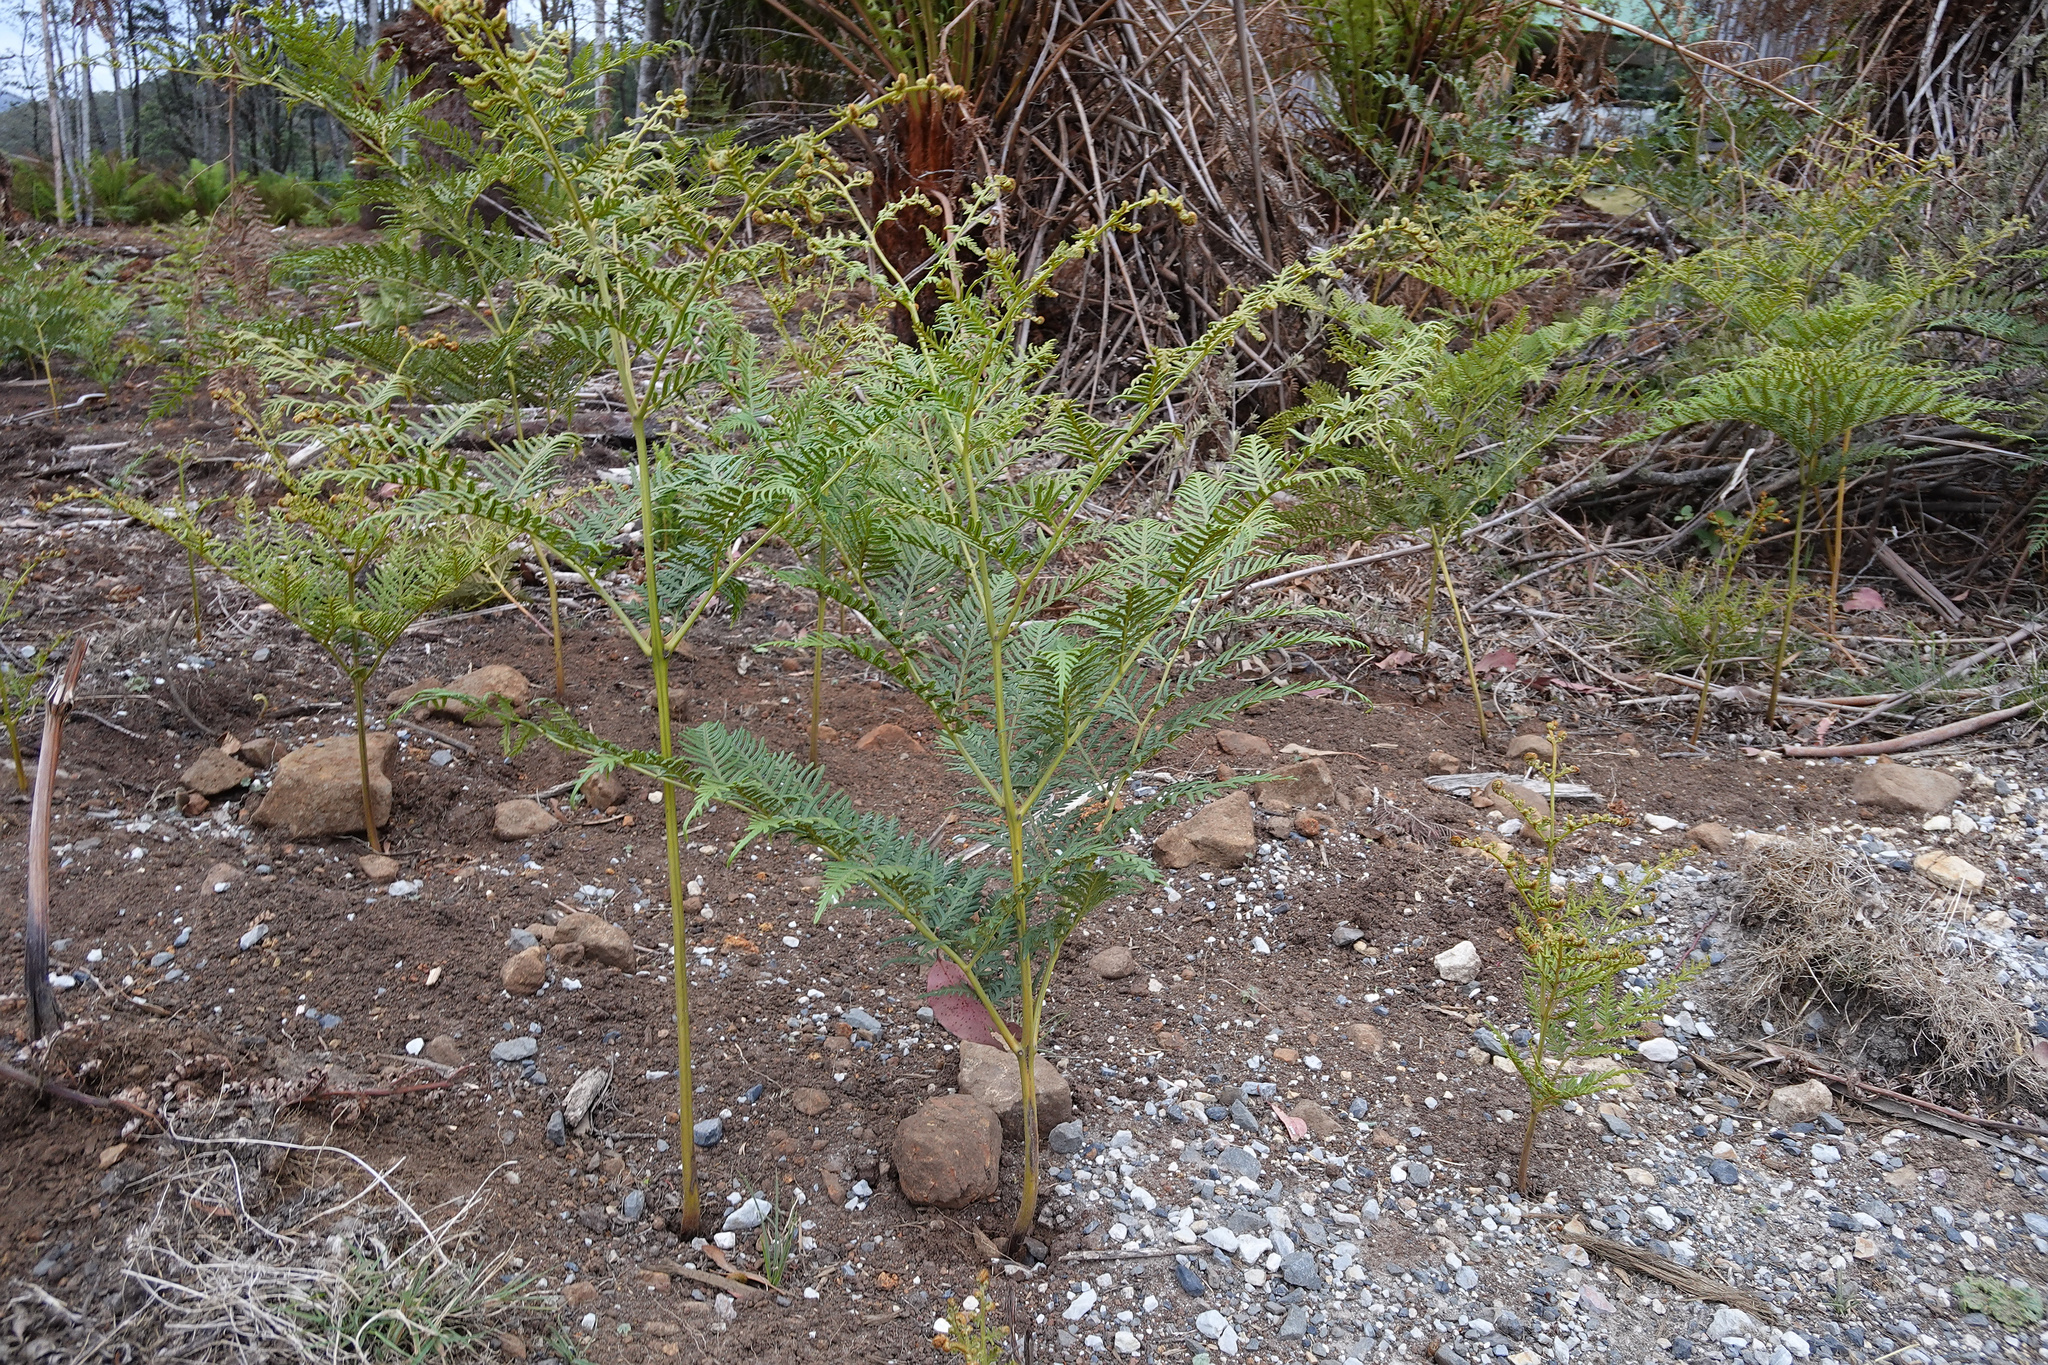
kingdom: Plantae
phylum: Tracheophyta
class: Polypodiopsida
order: Polypodiales
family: Dennstaedtiaceae
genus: Pteridium
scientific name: Pteridium esculentum
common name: Bracken fern
